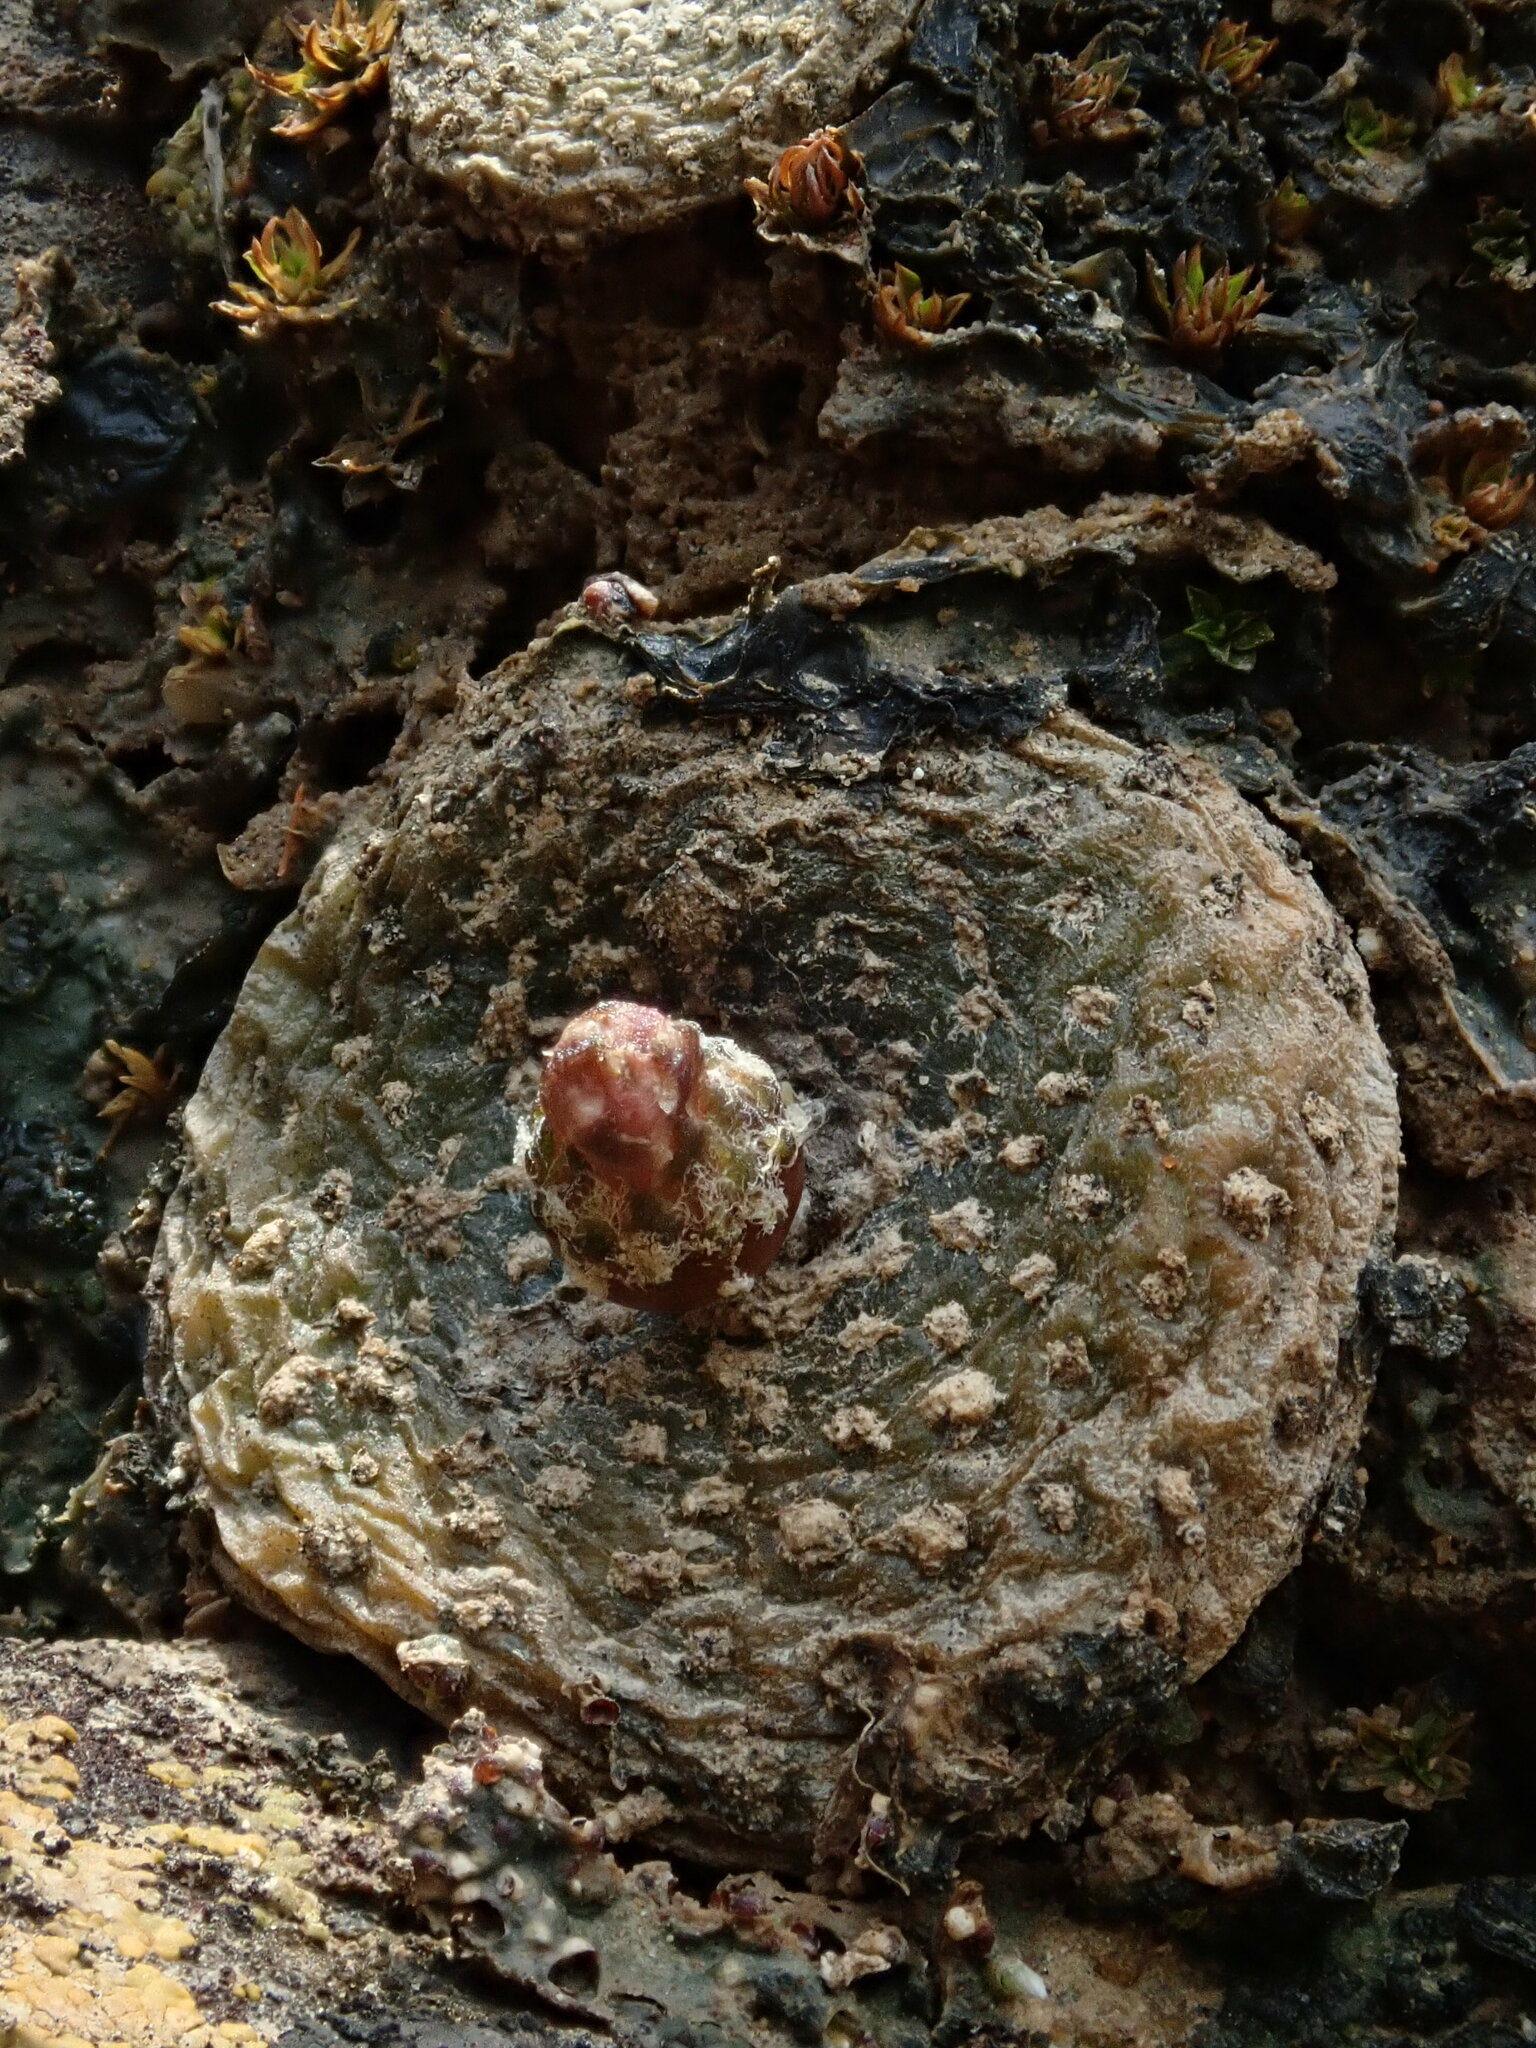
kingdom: Plantae
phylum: Tracheophyta
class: Magnoliopsida
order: Caryophyllales
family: Cactaceae
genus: Blossfeldia
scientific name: Blossfeldia liliputana
